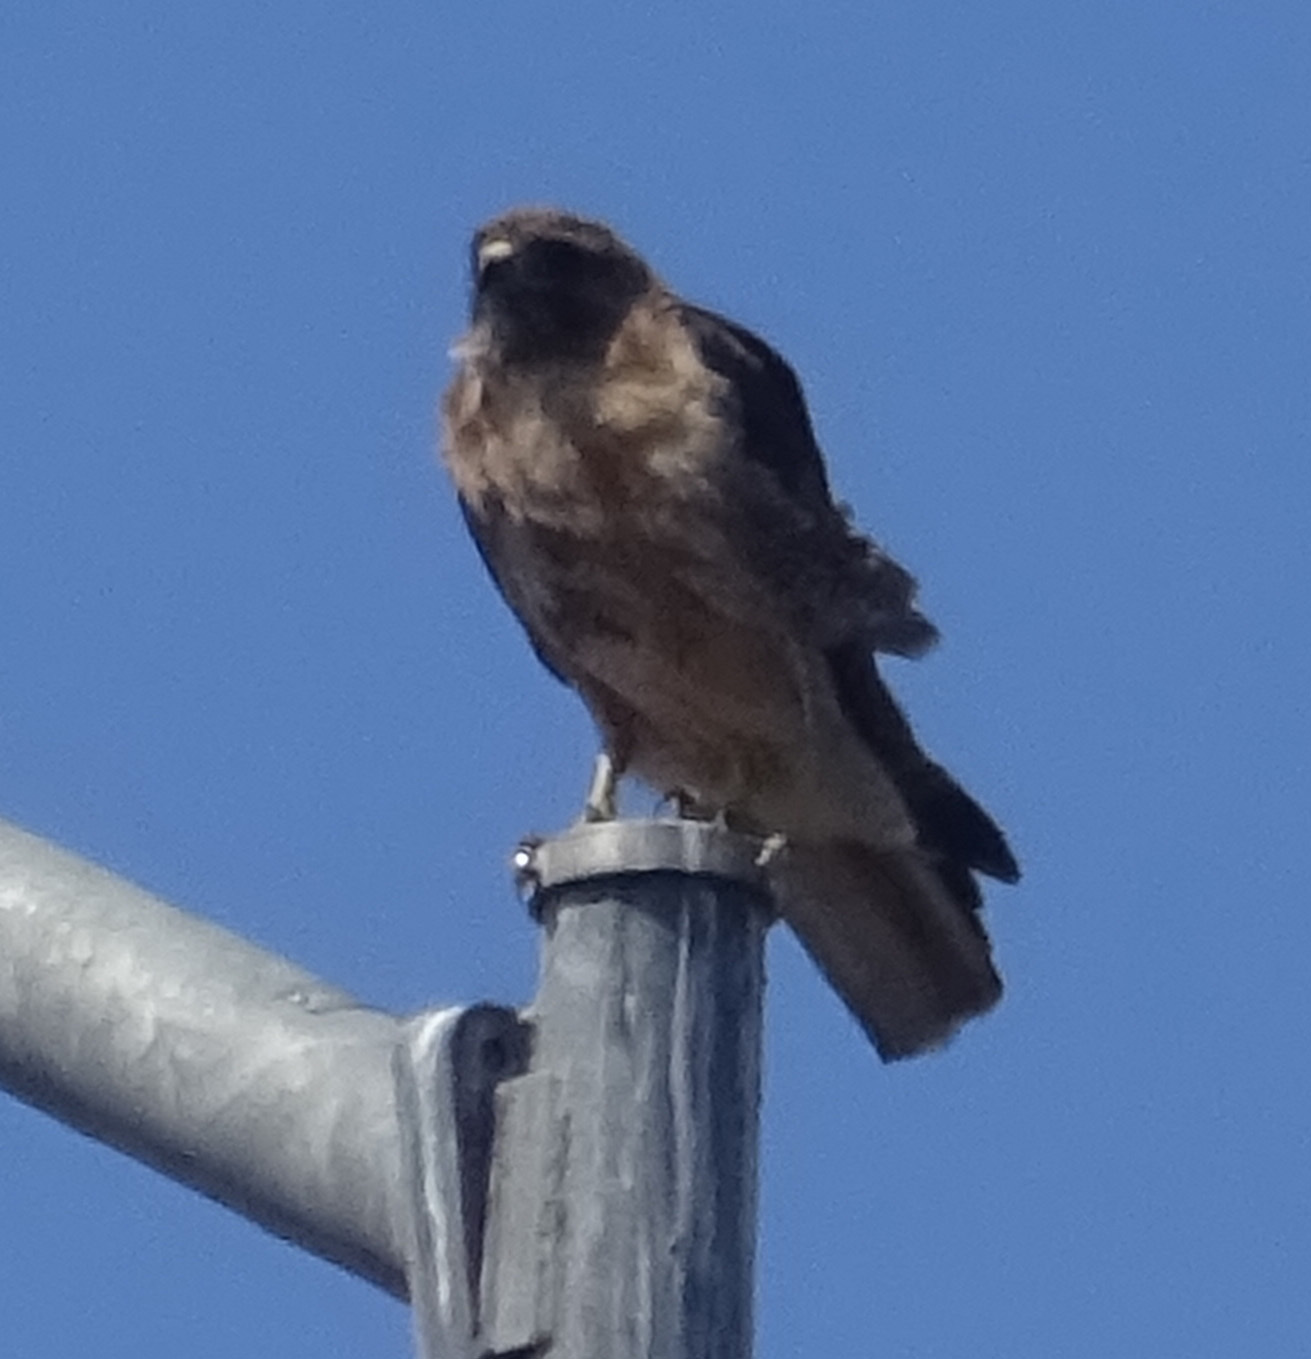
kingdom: Animalia
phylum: Chordata
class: Aves
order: Accipitriformes
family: Accipitridae
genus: Buteo
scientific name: Buteo jamaicensis
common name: Red-tailed hawk
